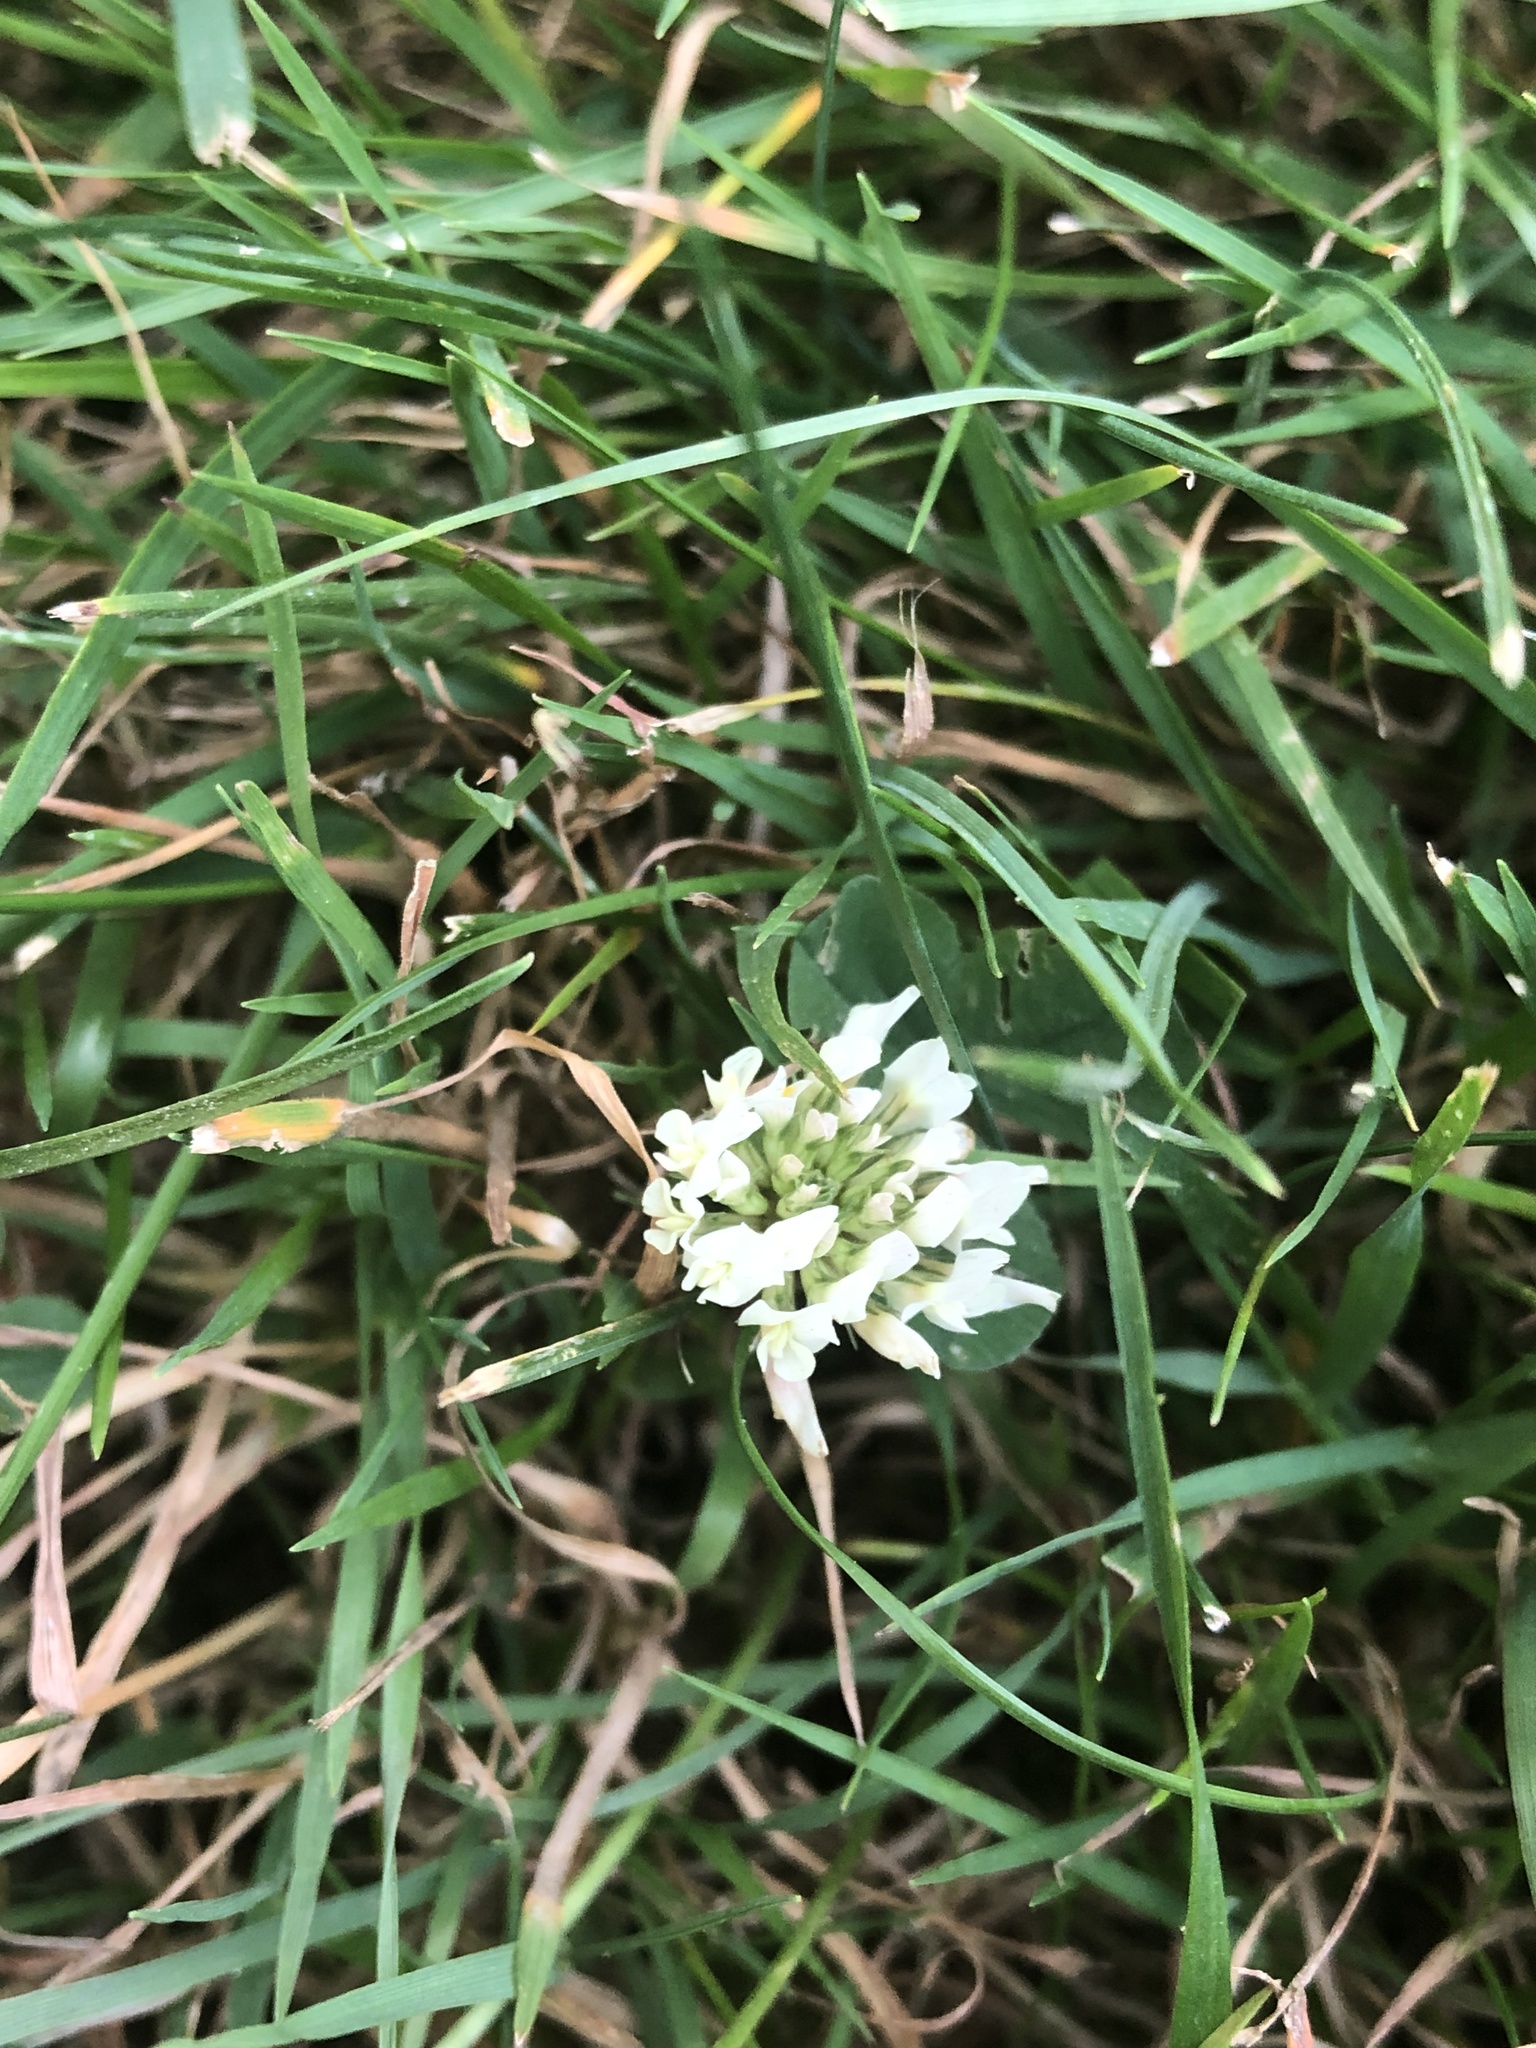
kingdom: Plantae
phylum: Tracheophyta
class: Magnoliopsida
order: Fabales
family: Fabaceae
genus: Trifolium
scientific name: Trifolium repens
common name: White clover
